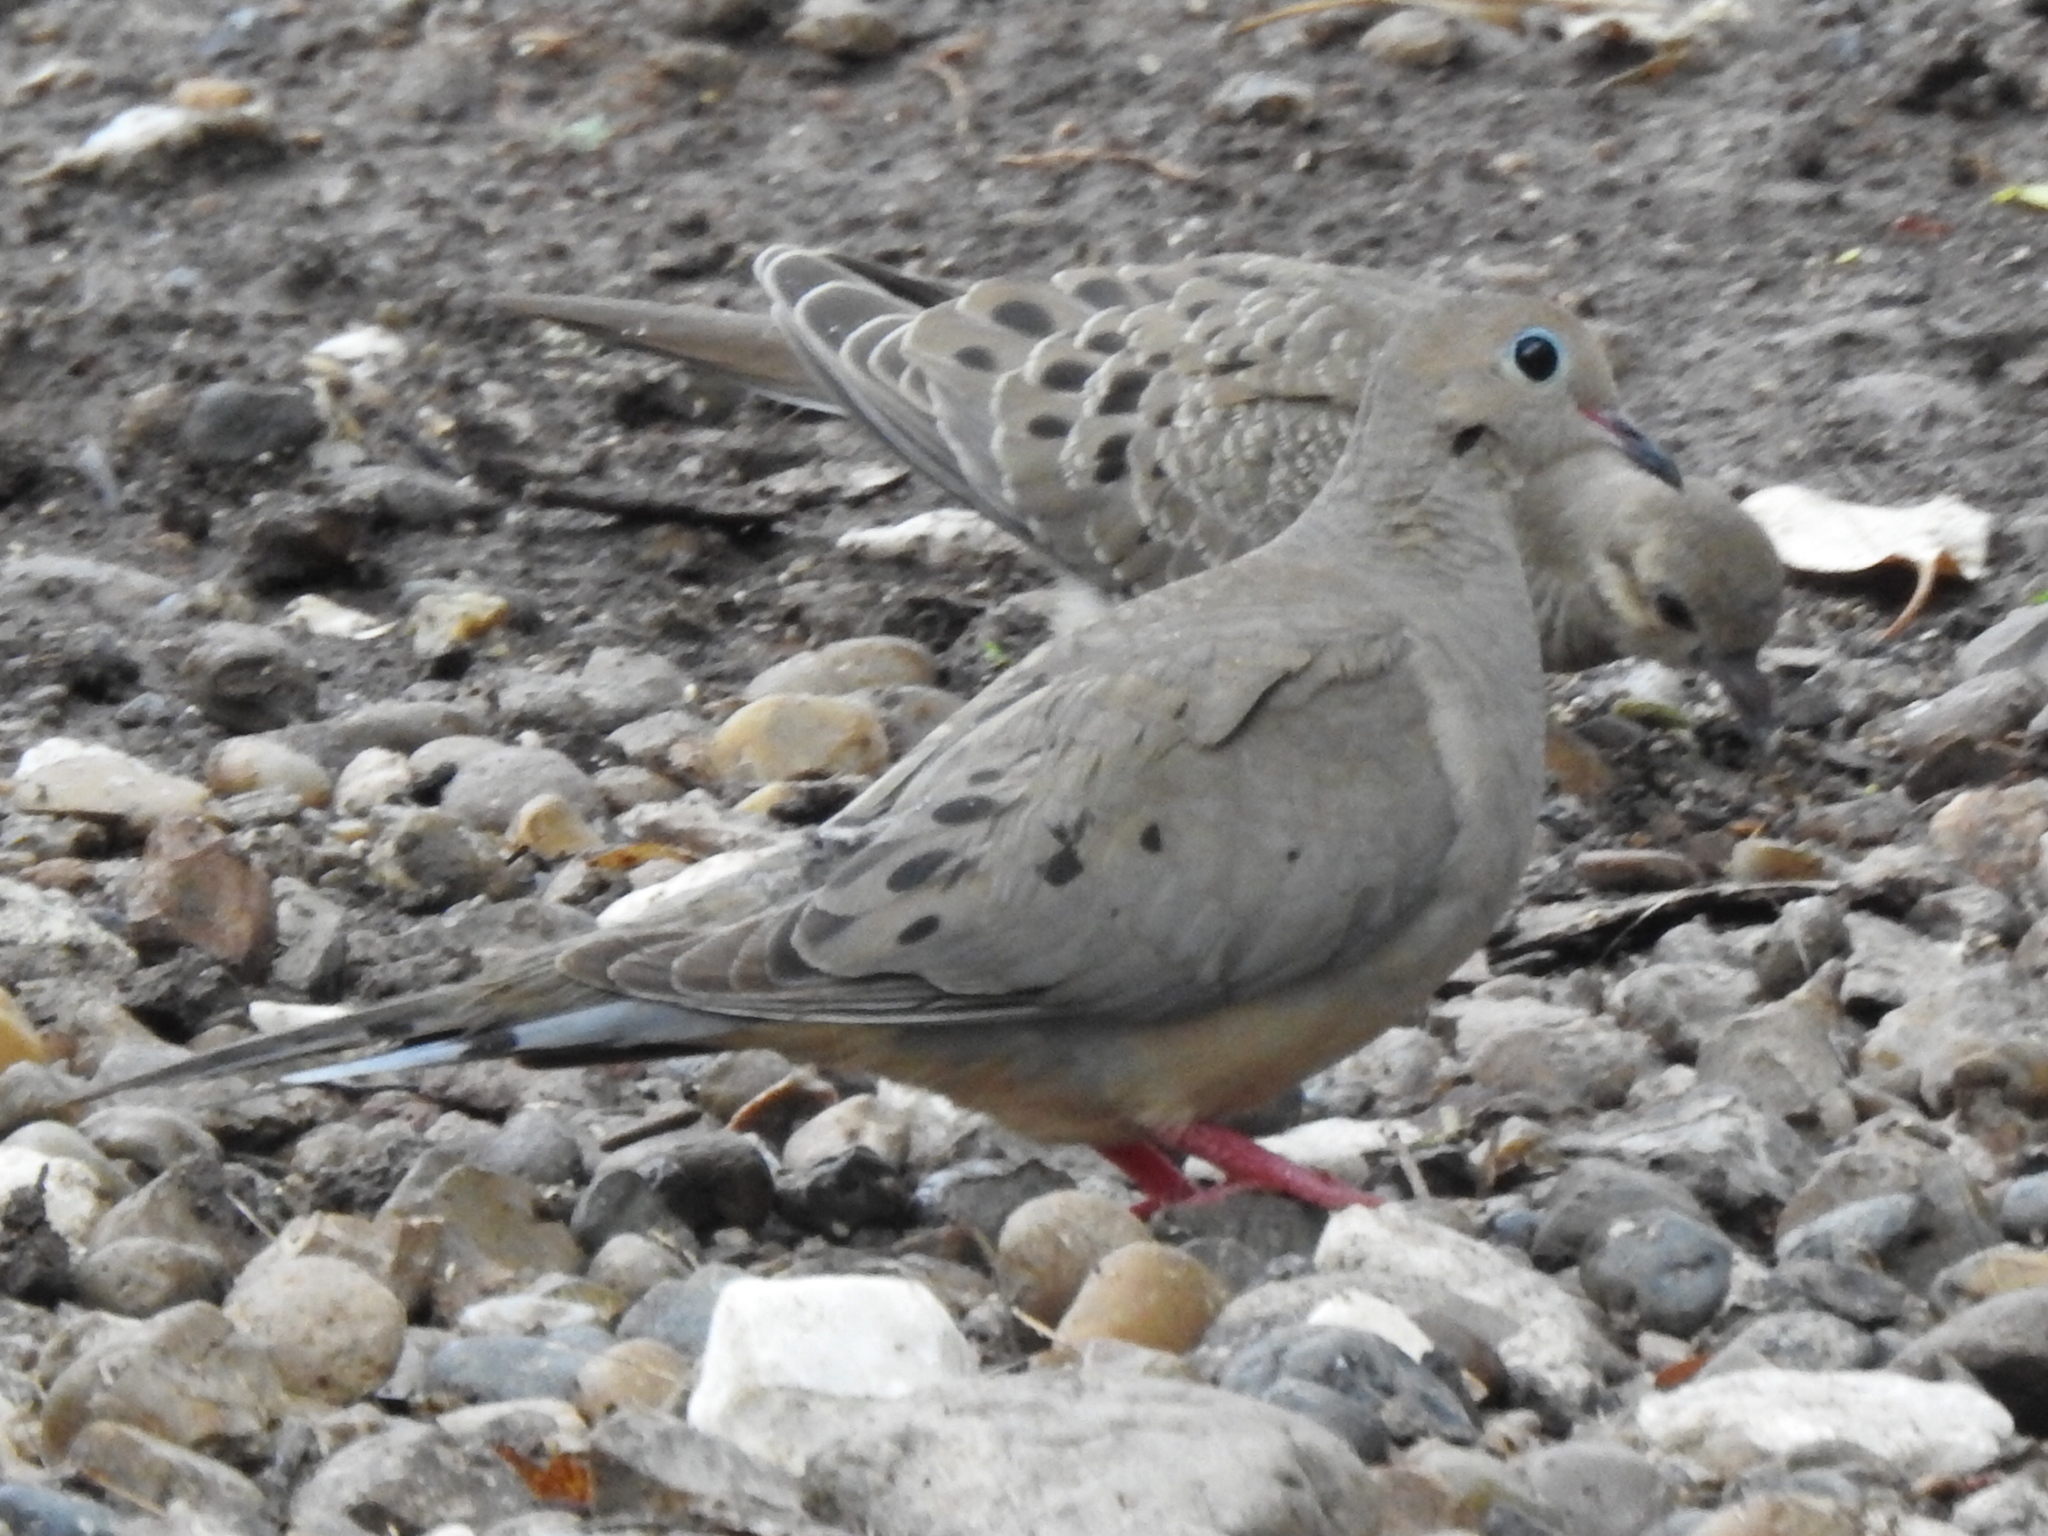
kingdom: Animalia
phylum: Chordata
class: Aves
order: Columbiformes
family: Columbidae
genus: Zenaida
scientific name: Zenaida macroura
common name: Mourning dove
